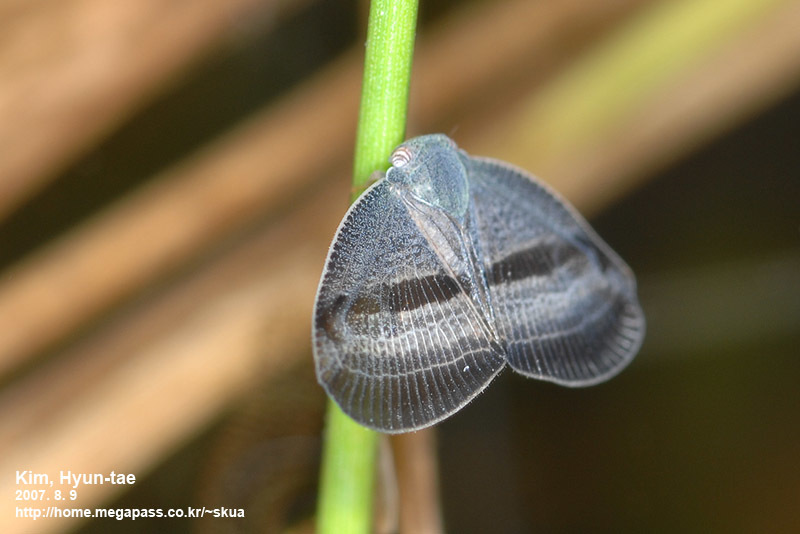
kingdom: Animalia
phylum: Arthropoda
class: Insecta
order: Hemiptera
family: Ricaniidae
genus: Ricania
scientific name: Ricania taeniata
